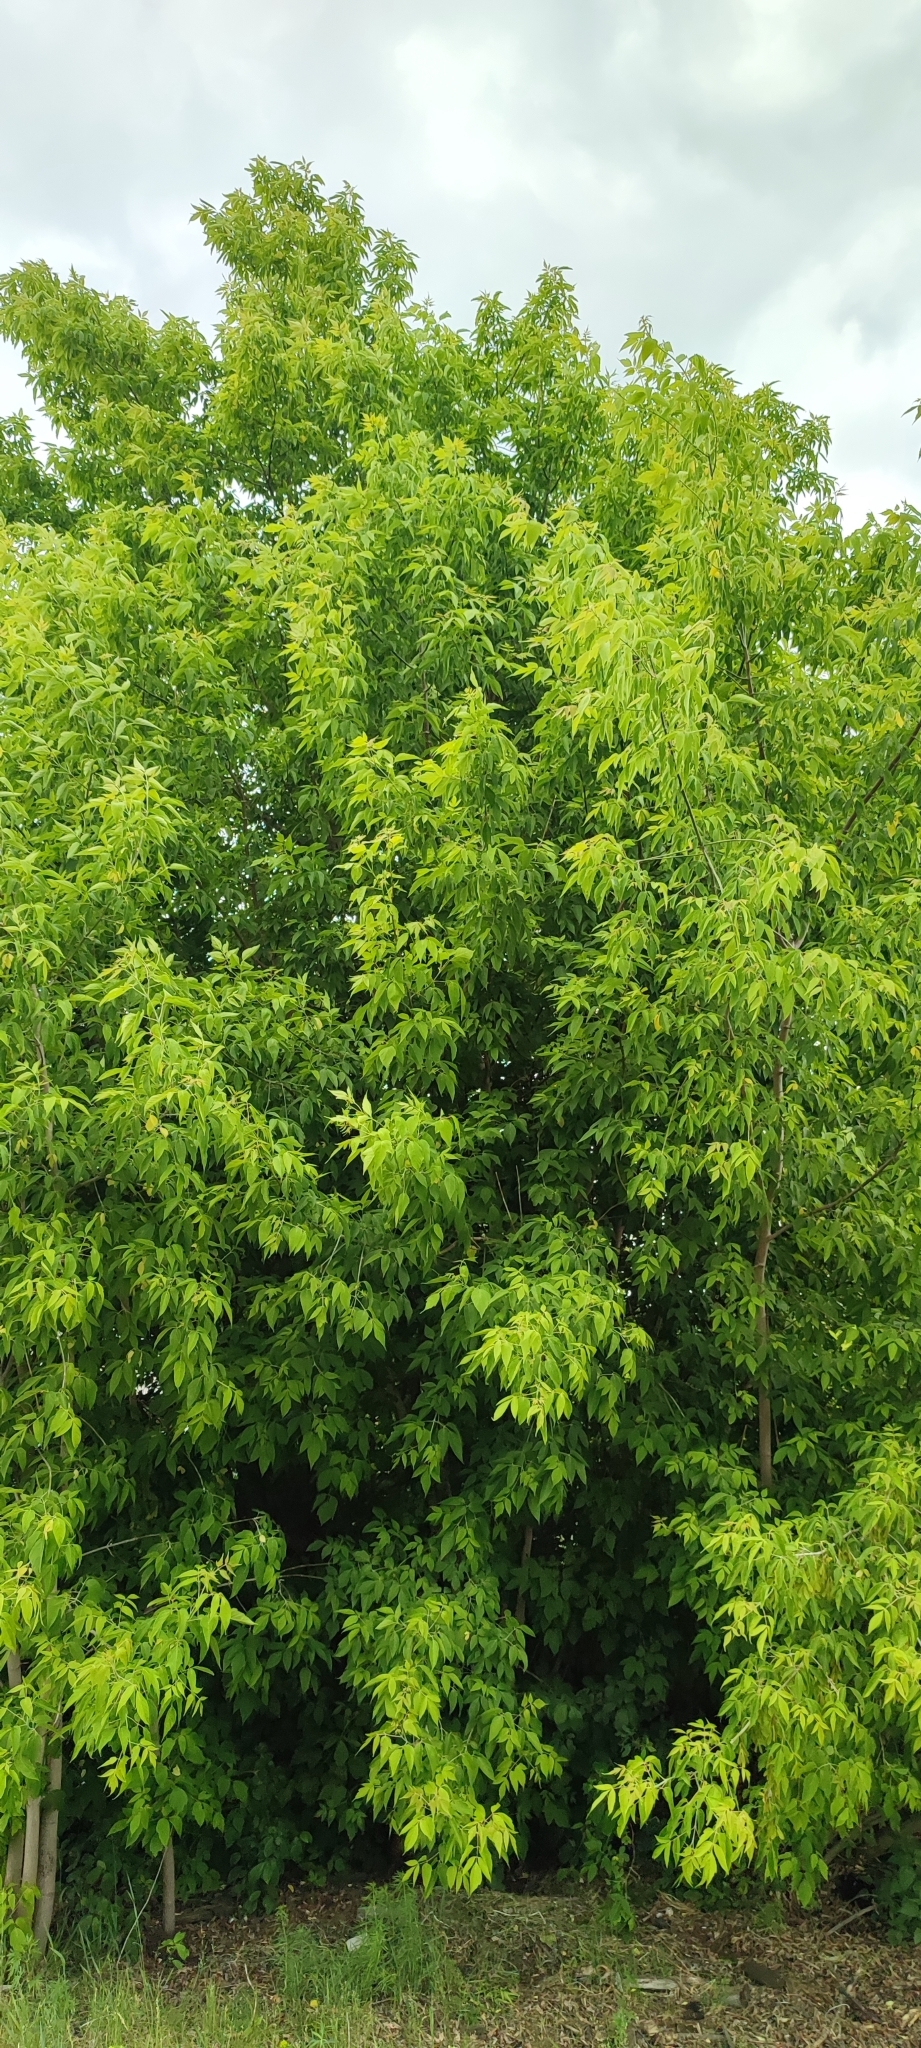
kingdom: Plantae
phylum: Tracheophyta
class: Magnoliopsida
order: Sapindales
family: Sapindaceae
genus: Acer
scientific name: Acer negundo
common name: Ashleaf maple
